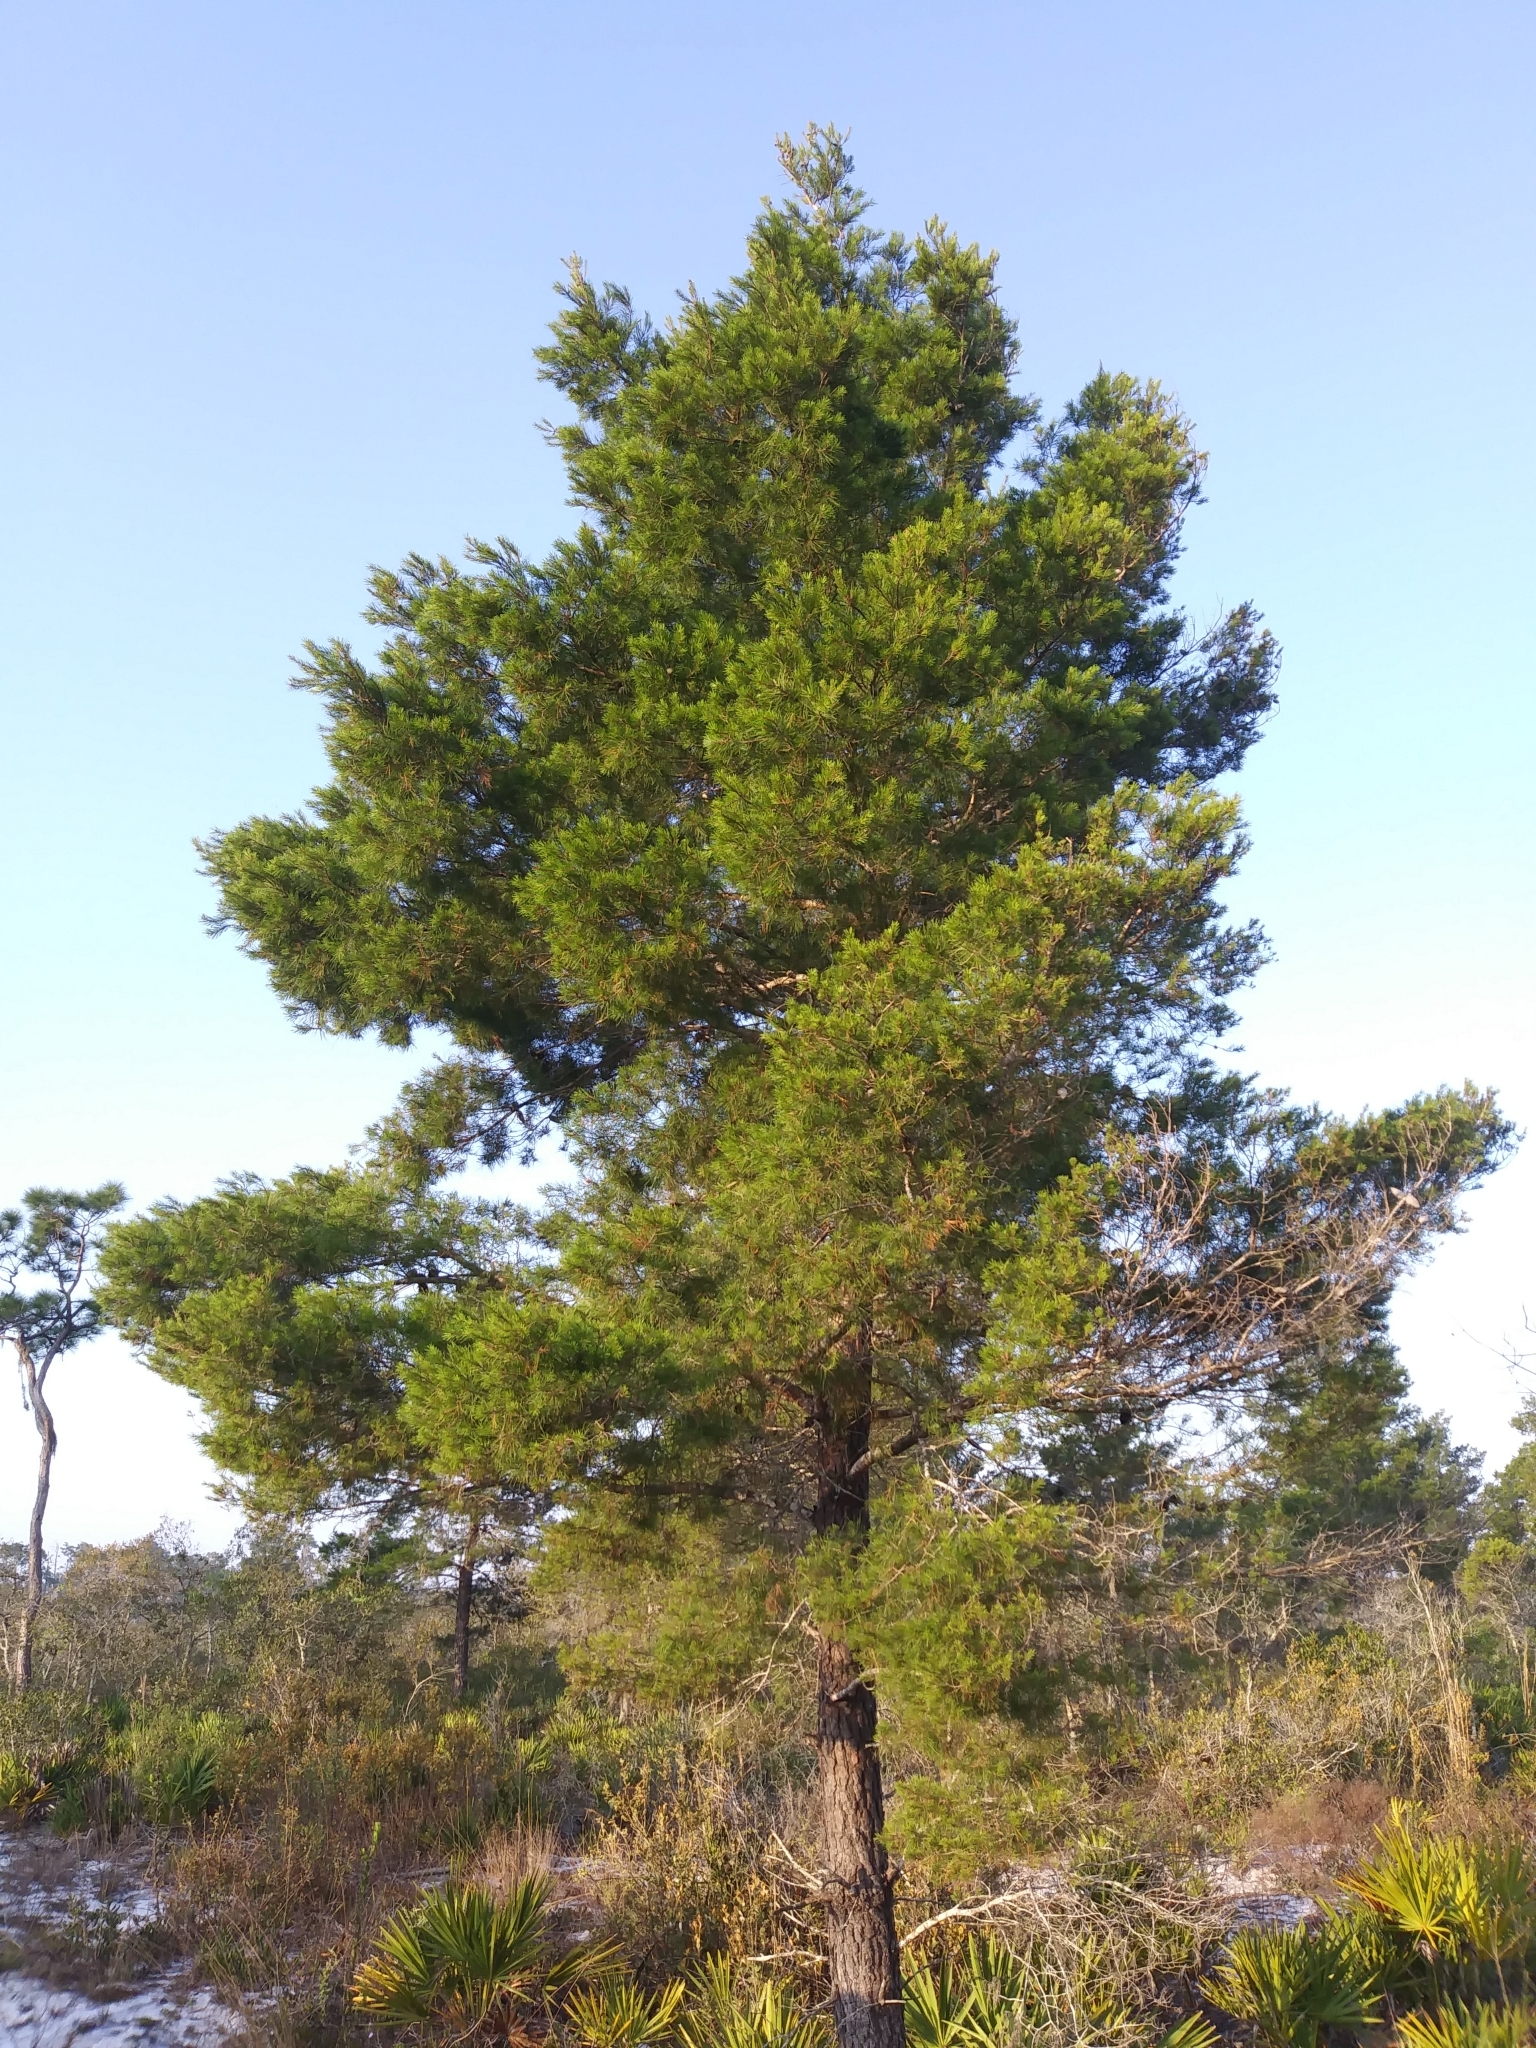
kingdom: Plantae
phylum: Tracheophyta
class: Pinopsida
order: Pinales
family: Pinaceae
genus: Pinus
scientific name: Pinus clausa
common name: Sand pine
